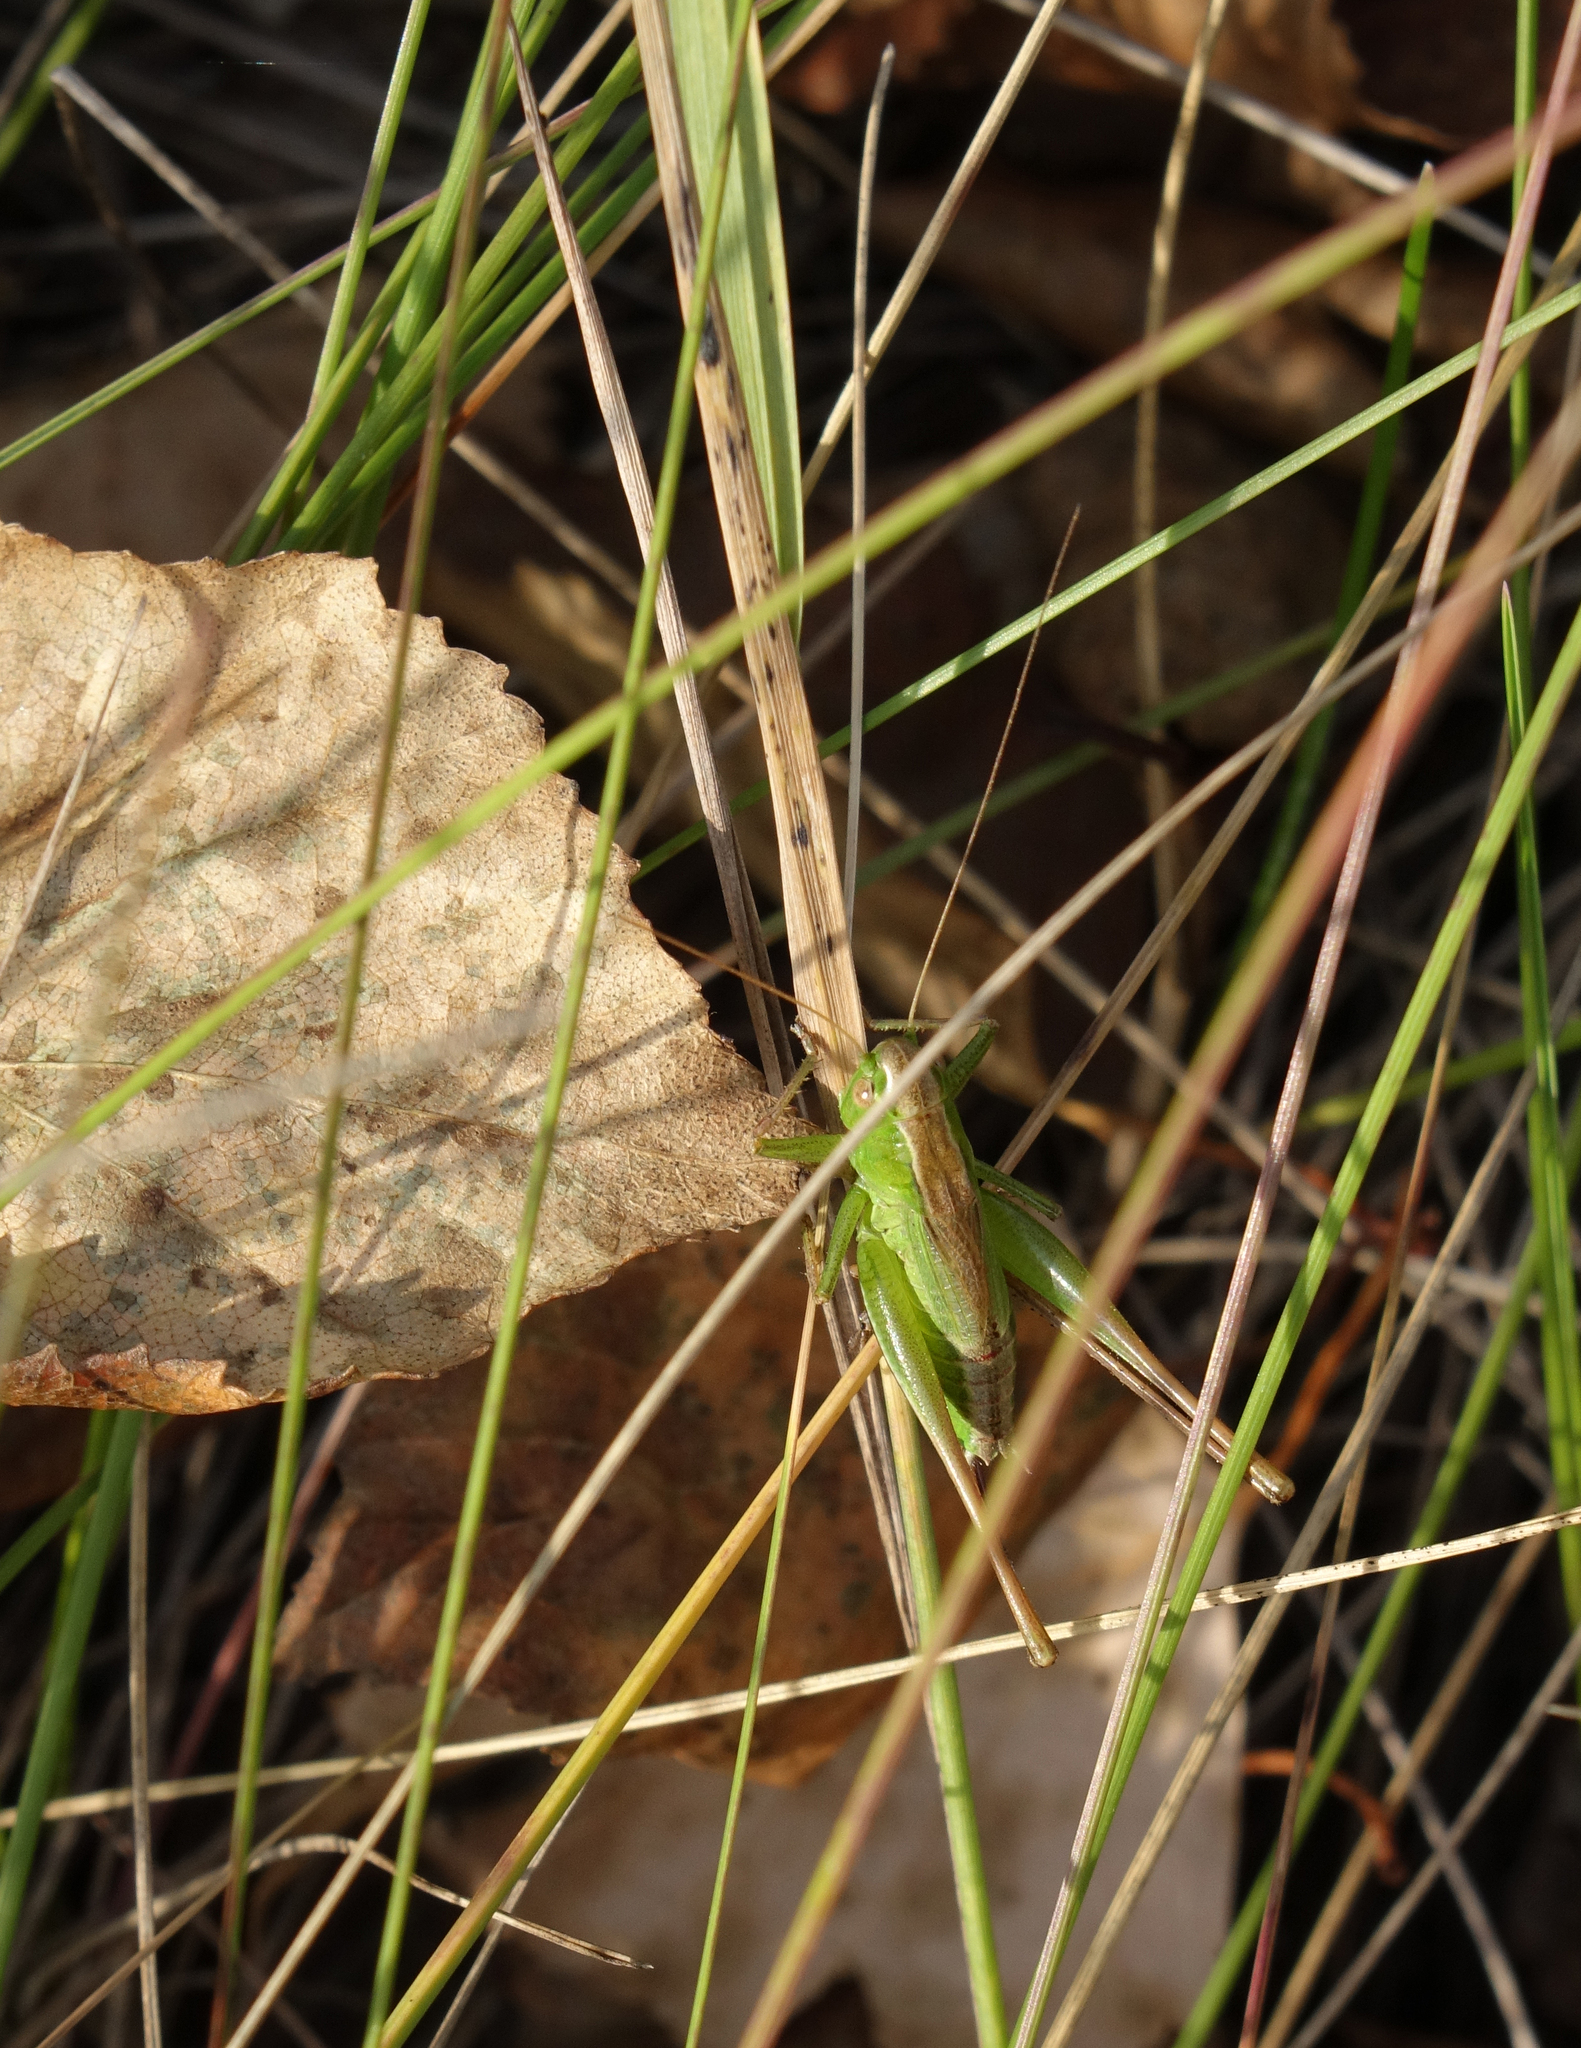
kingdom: Animalia
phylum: Arthropoda
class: Insecta
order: Orthoptera
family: Tettigoniidae
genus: Bicolorana
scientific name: Bicolorana bicolor
